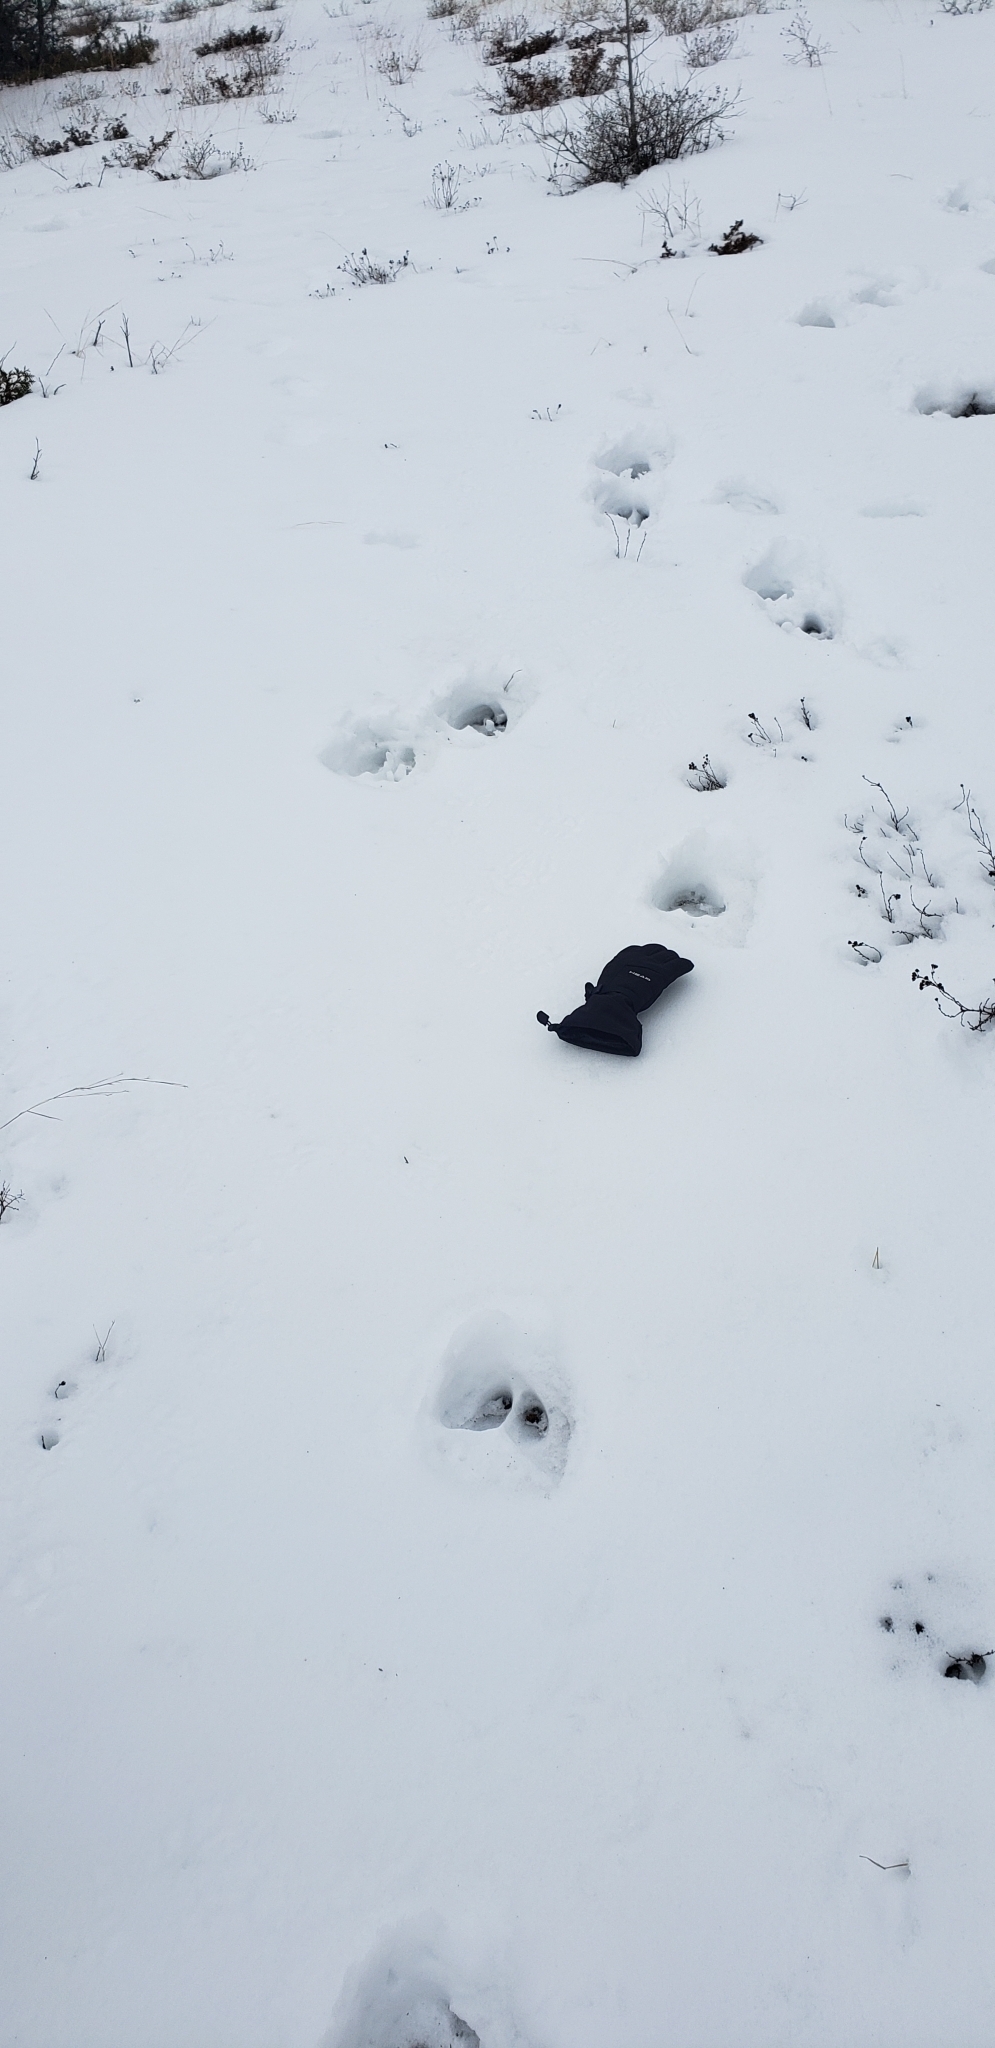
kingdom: Animalia
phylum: Chordata
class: Mammalia
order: Artiodactyla
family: Cervidae
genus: Alces
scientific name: Alces alces
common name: Moose
